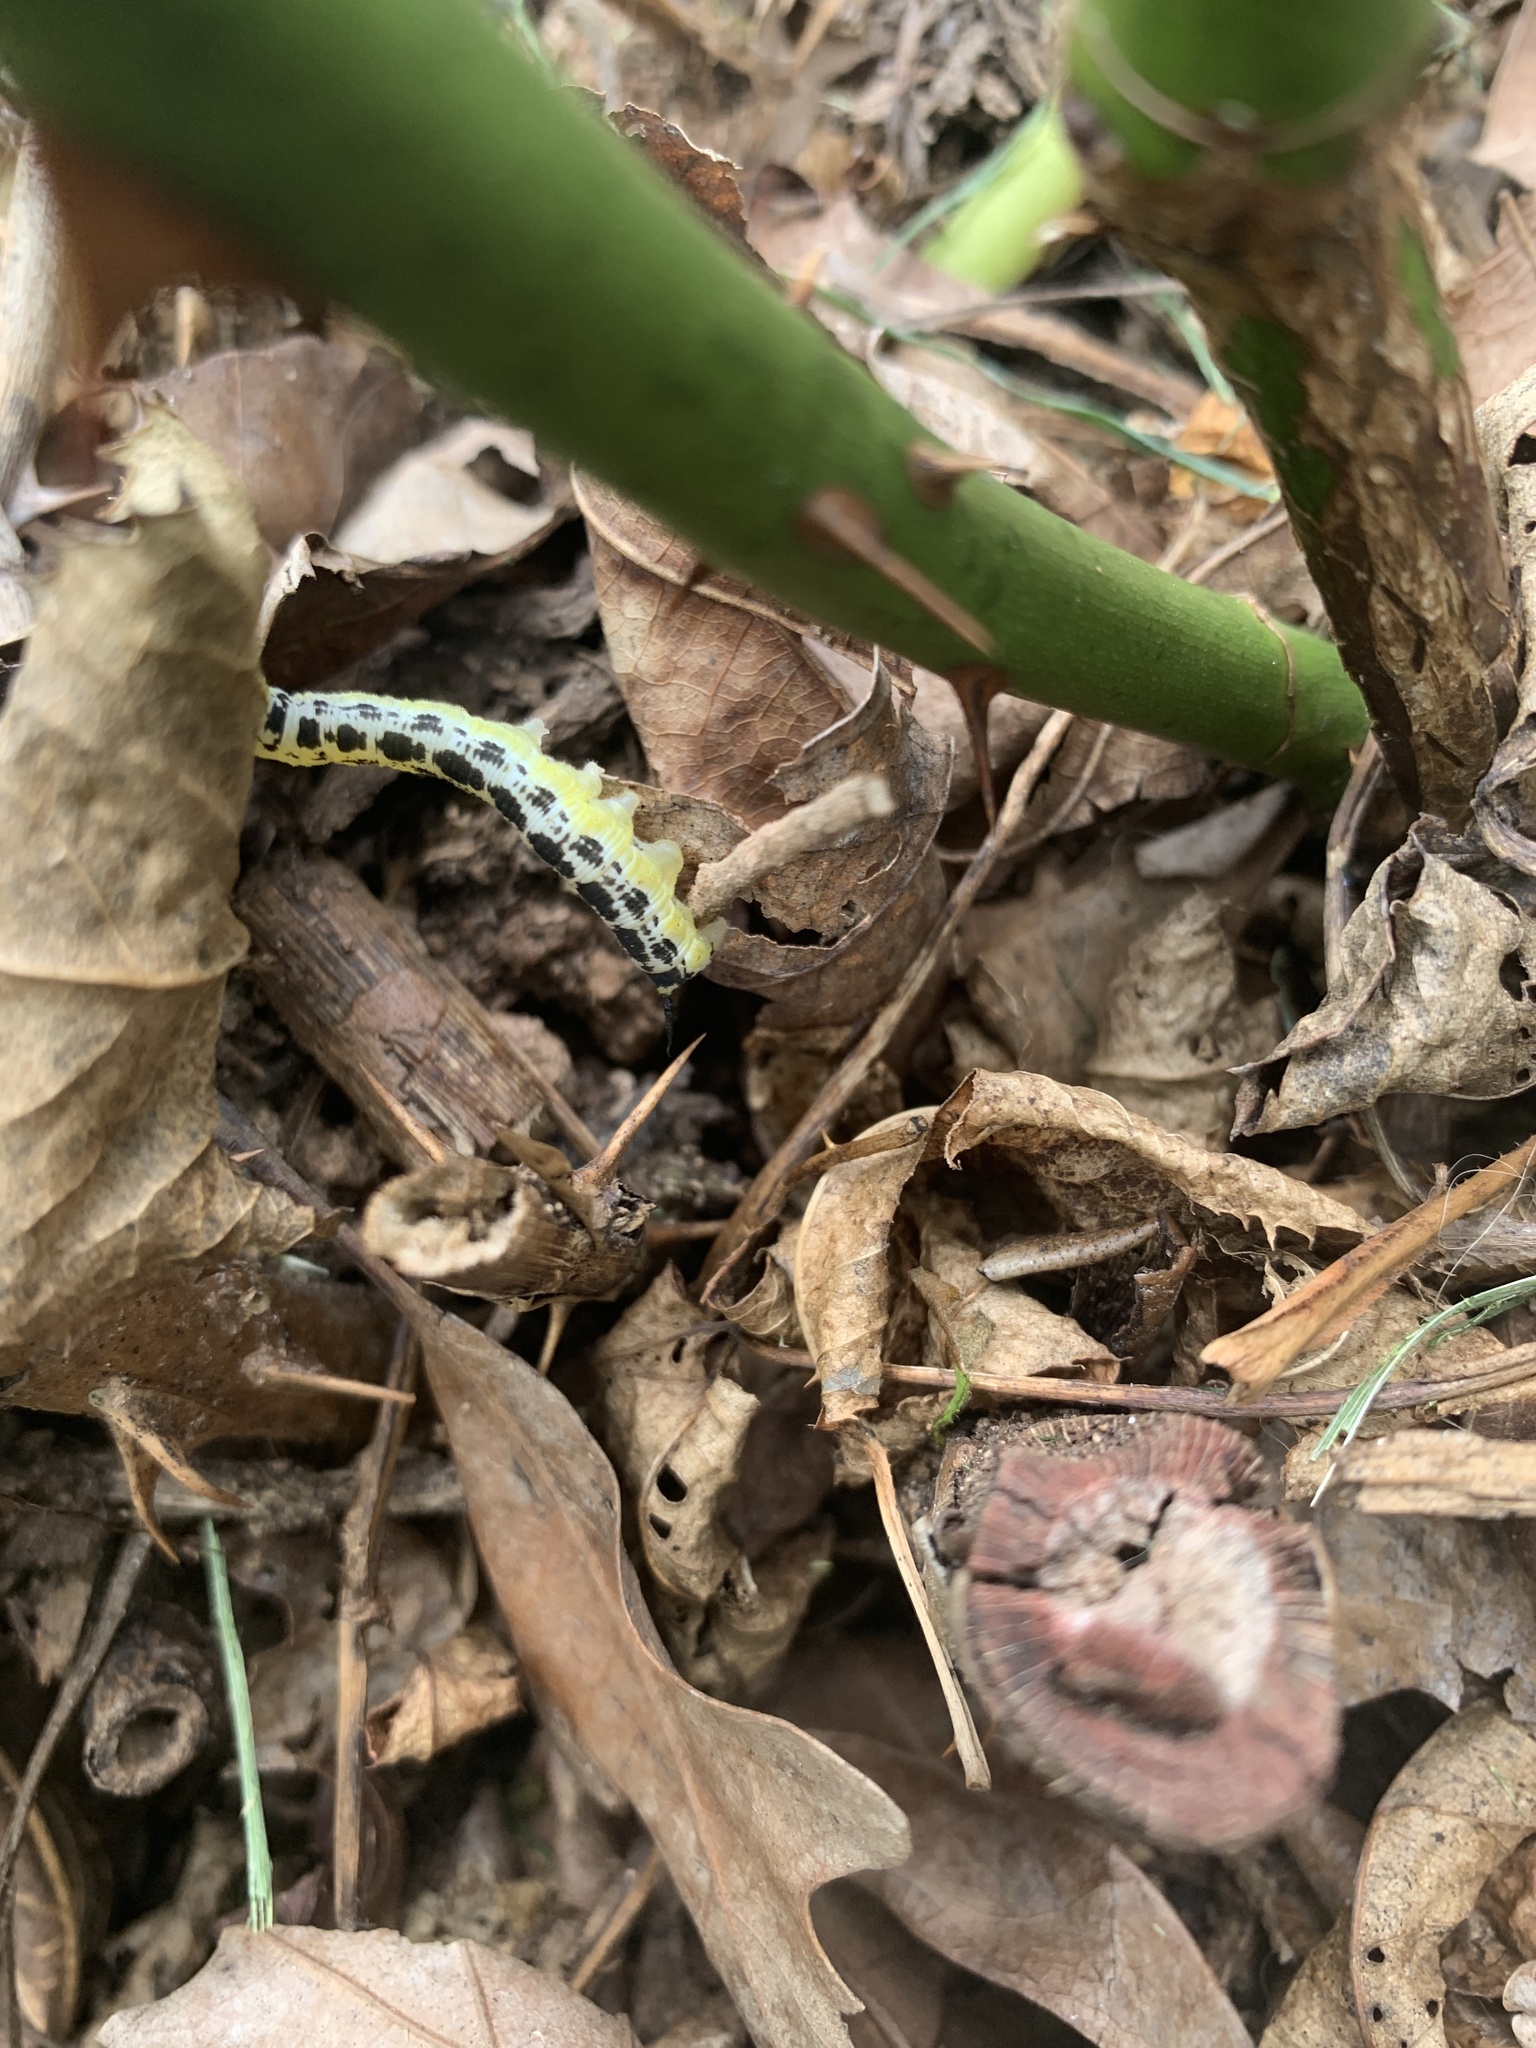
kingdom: Animalia
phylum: Arthropoda
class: Insecta
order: Lepidoptera
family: Sphingidae
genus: Ceratomia
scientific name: Ceratomia catalpae
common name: Catalpa hornworm
